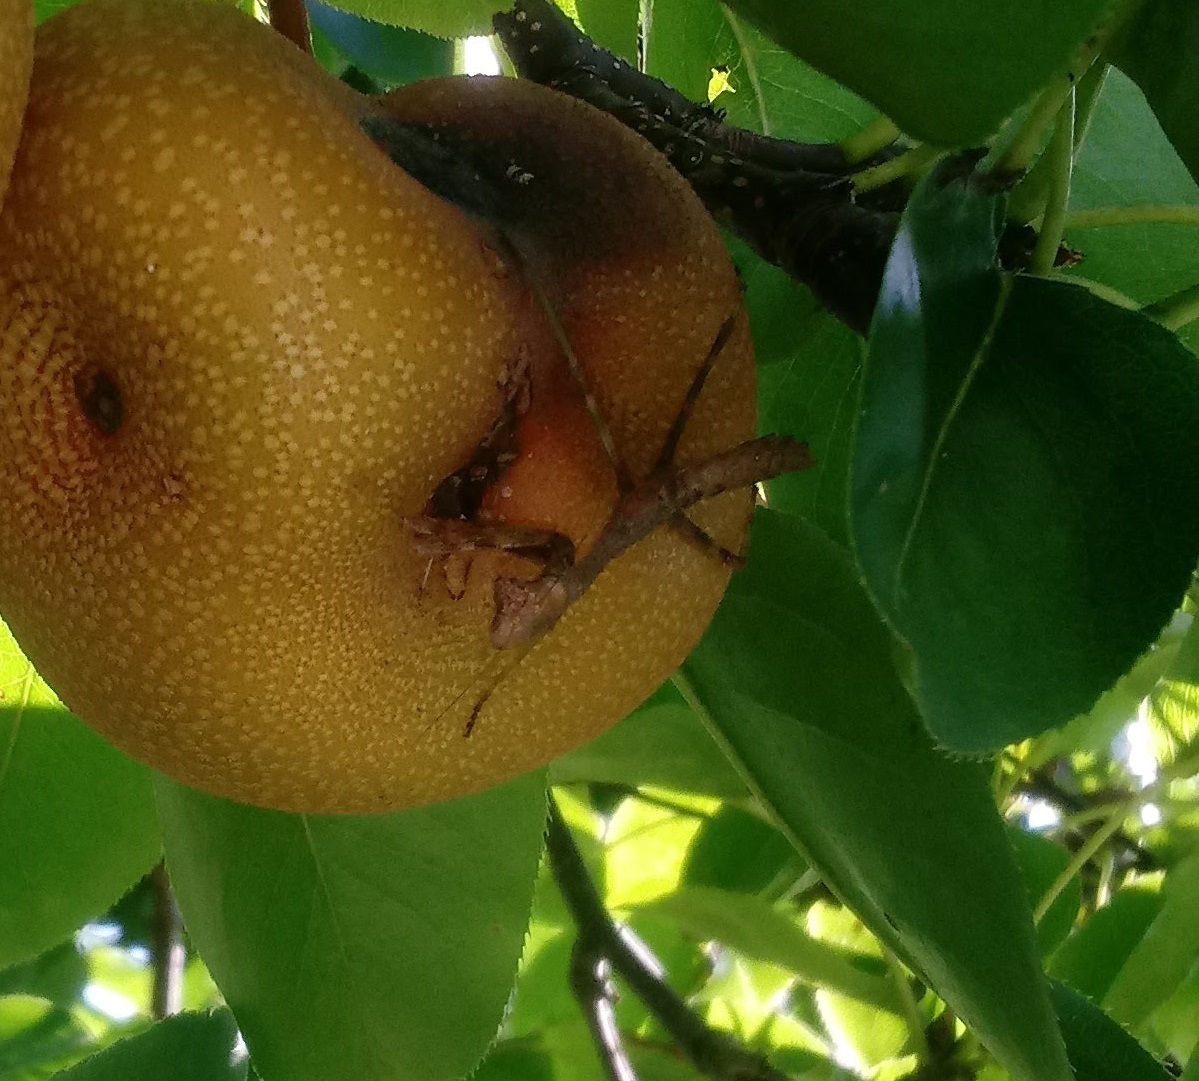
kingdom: Animalia
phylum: Arthropoda
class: Insecta
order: Mantodea
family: Mantidae
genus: Stagmomantis
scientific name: Stagmomantis carolina
